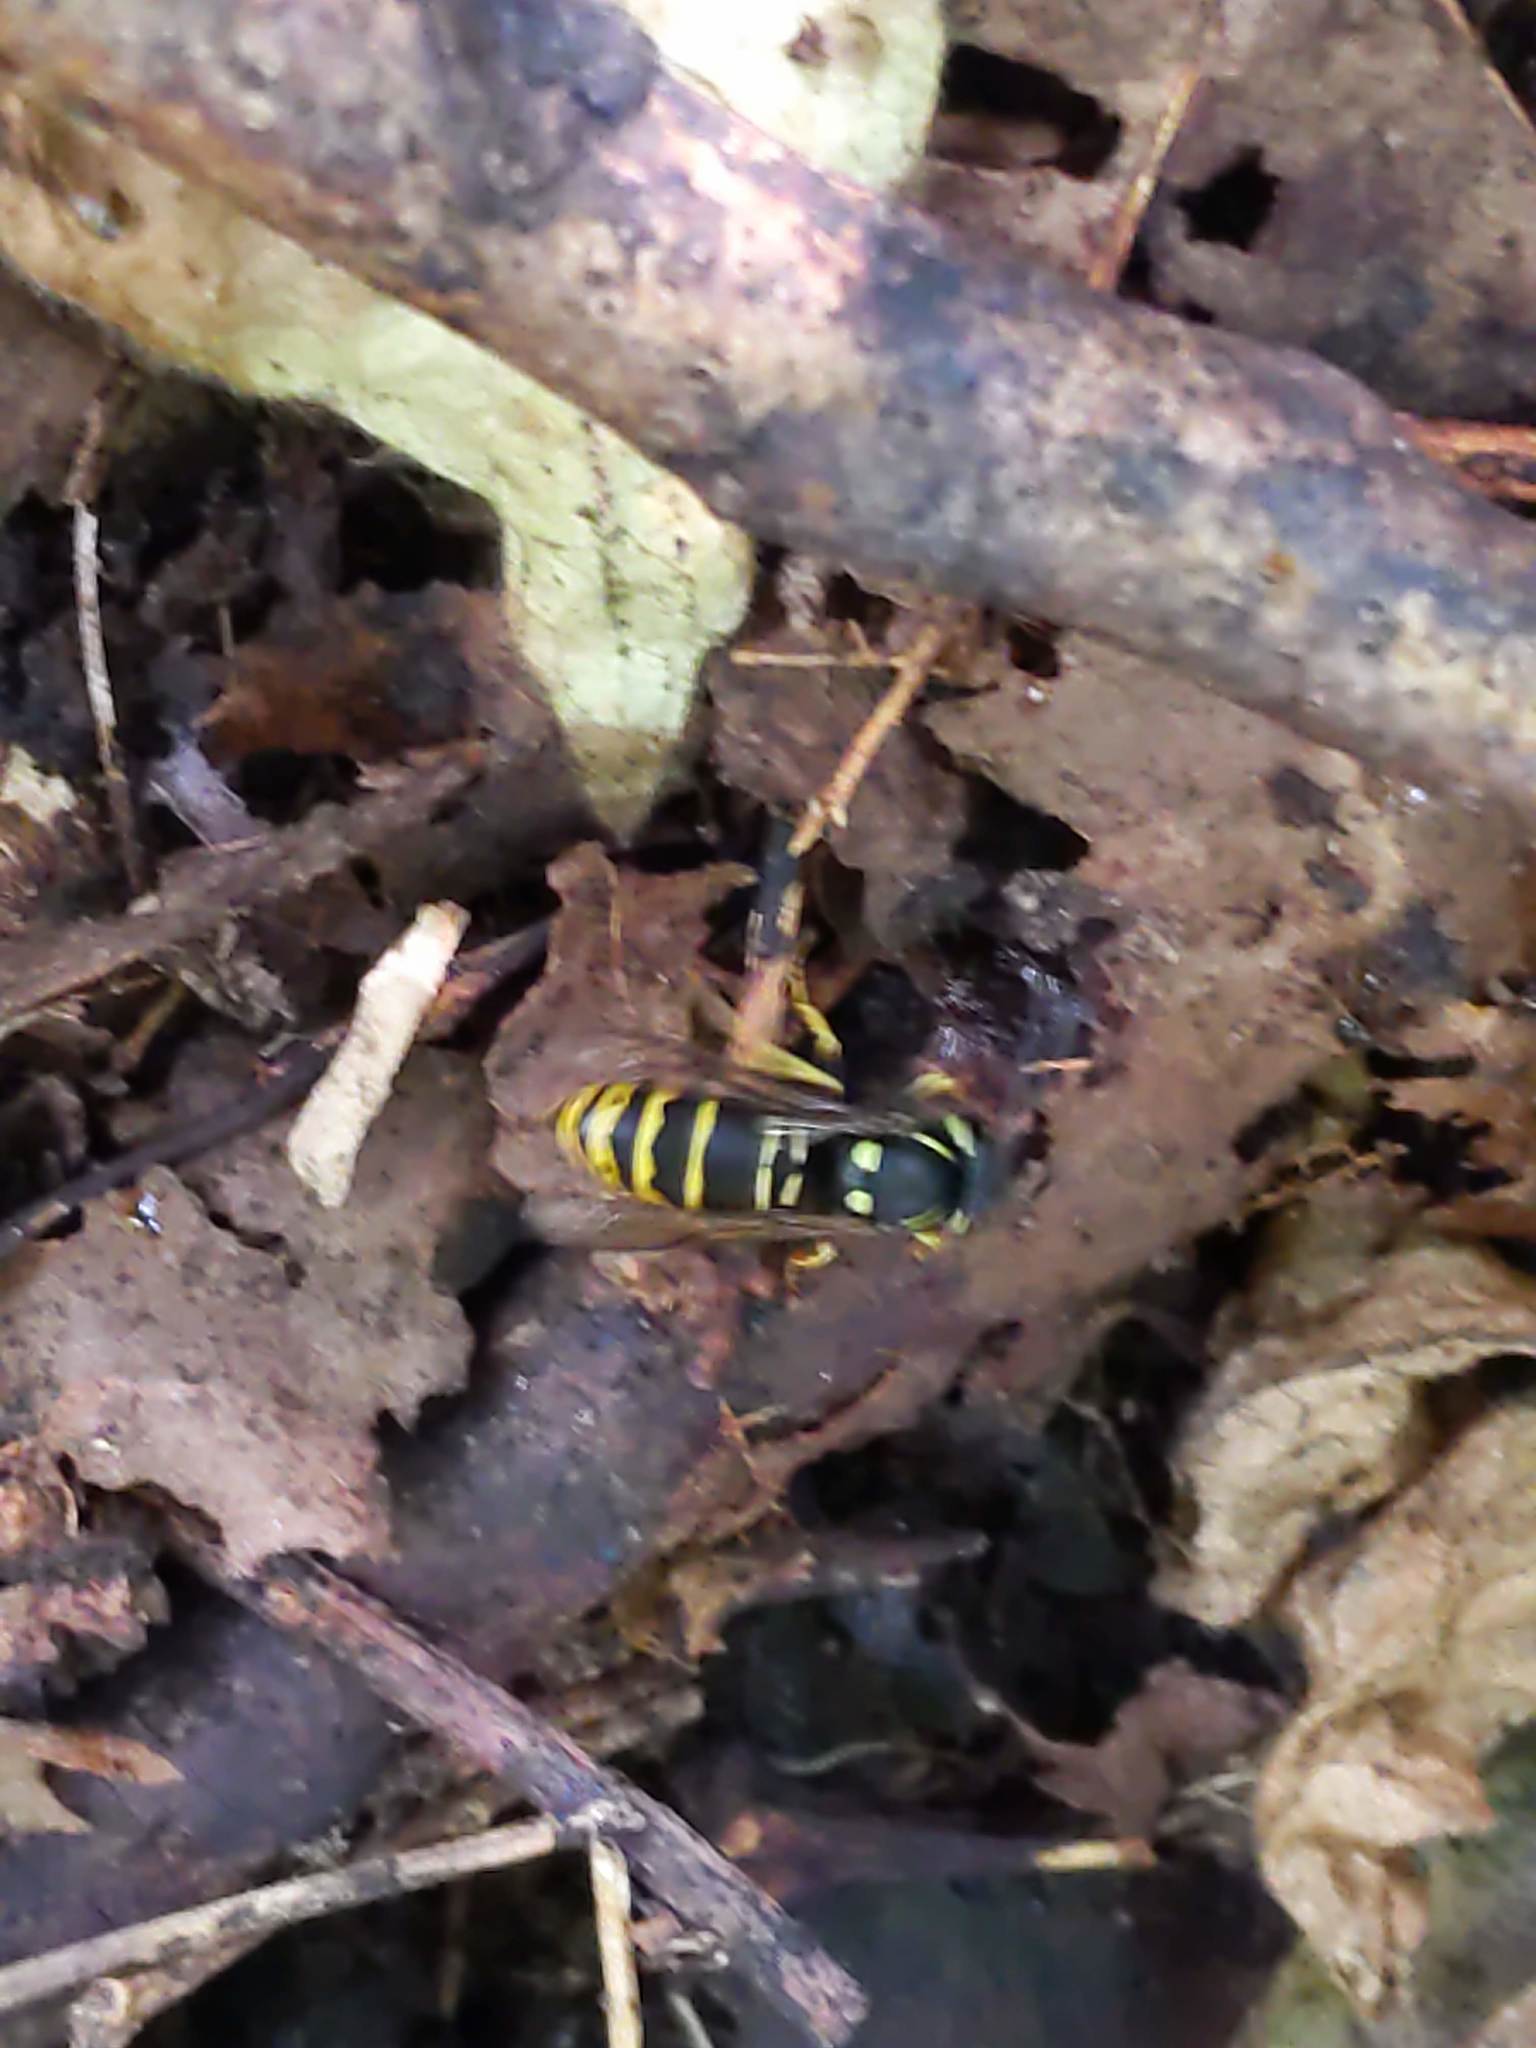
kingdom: Animalia
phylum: Arthropoda
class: Insecta
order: Hymenoptera
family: Vespidae
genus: Vespula
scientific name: Vespula vidua
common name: Widow yellowjacket
